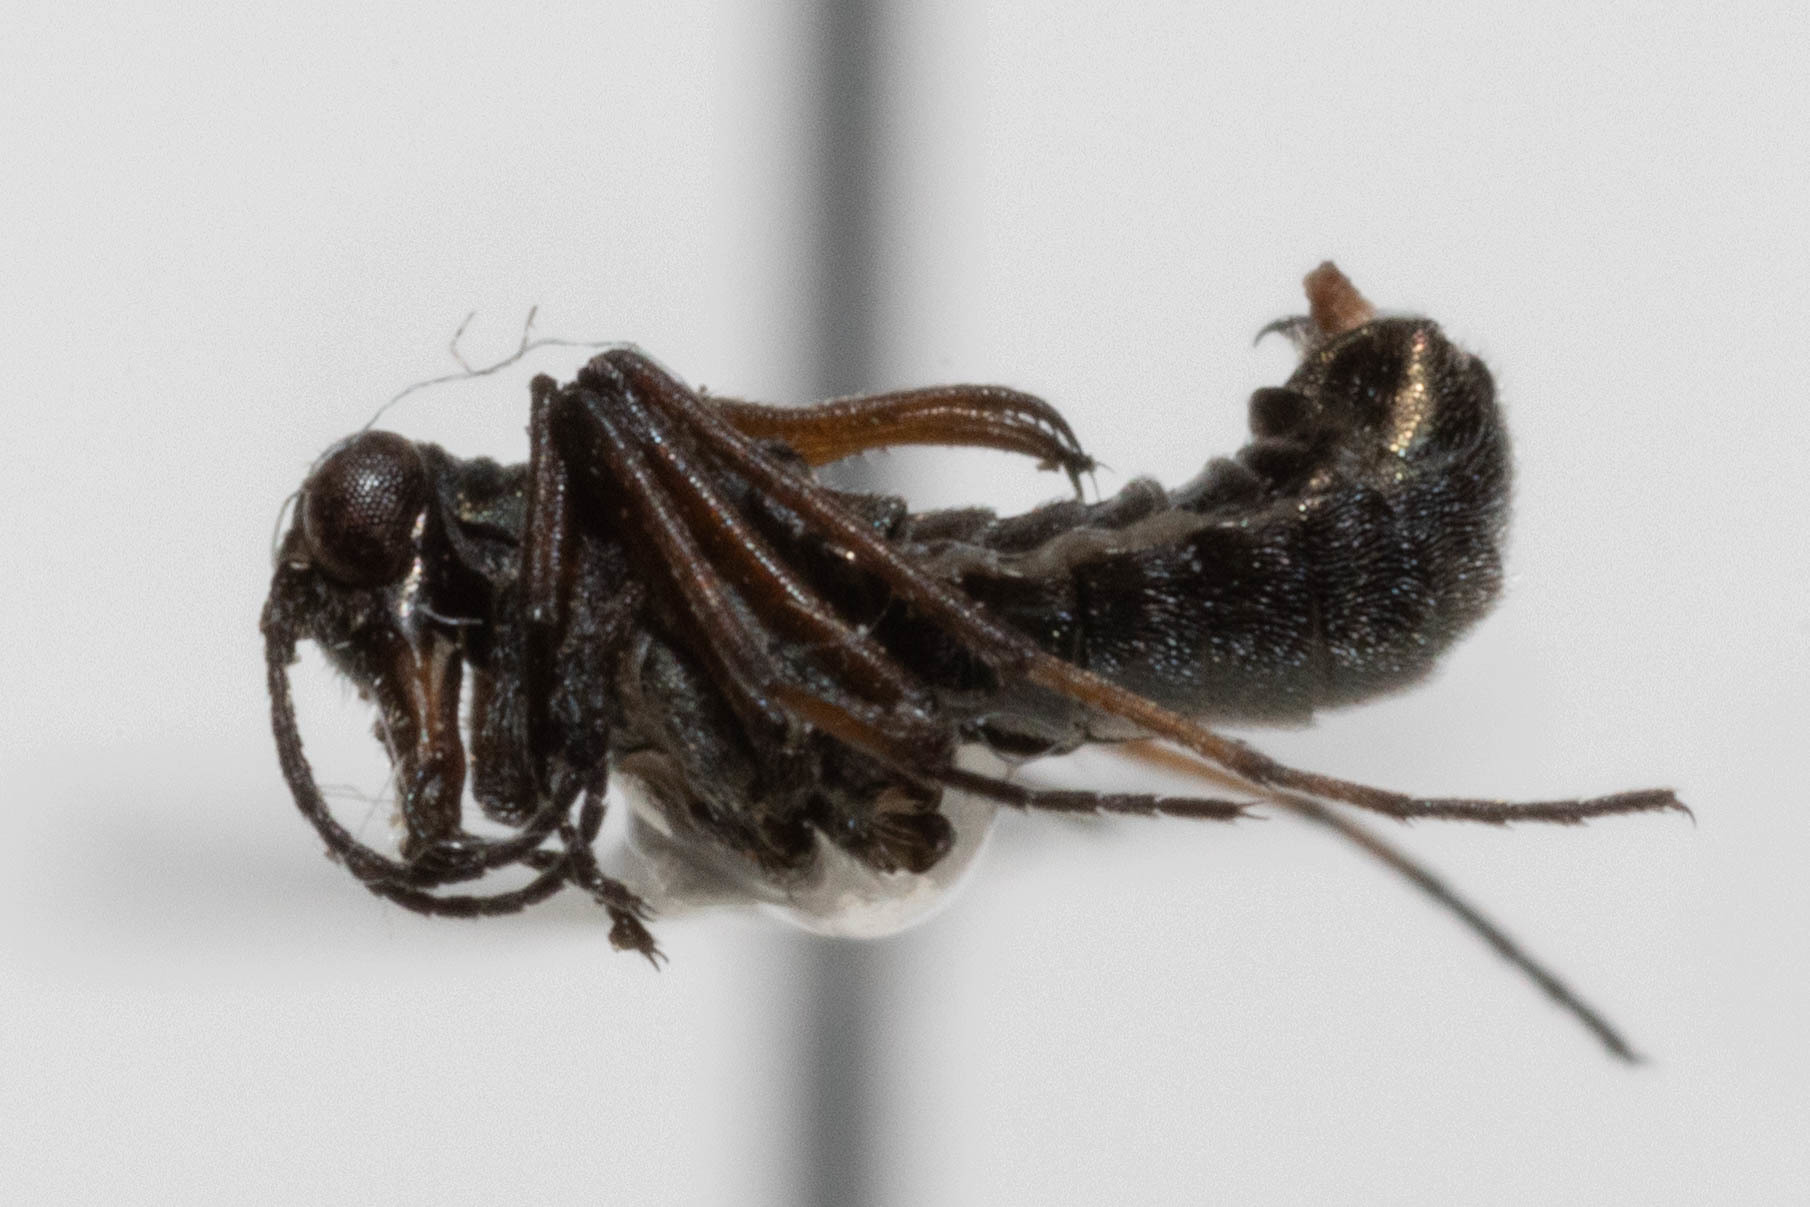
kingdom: Animalia
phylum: Arthropoda
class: Insecta
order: Mecoptera
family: Boreidae
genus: Boreus
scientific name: Boreus reductus
